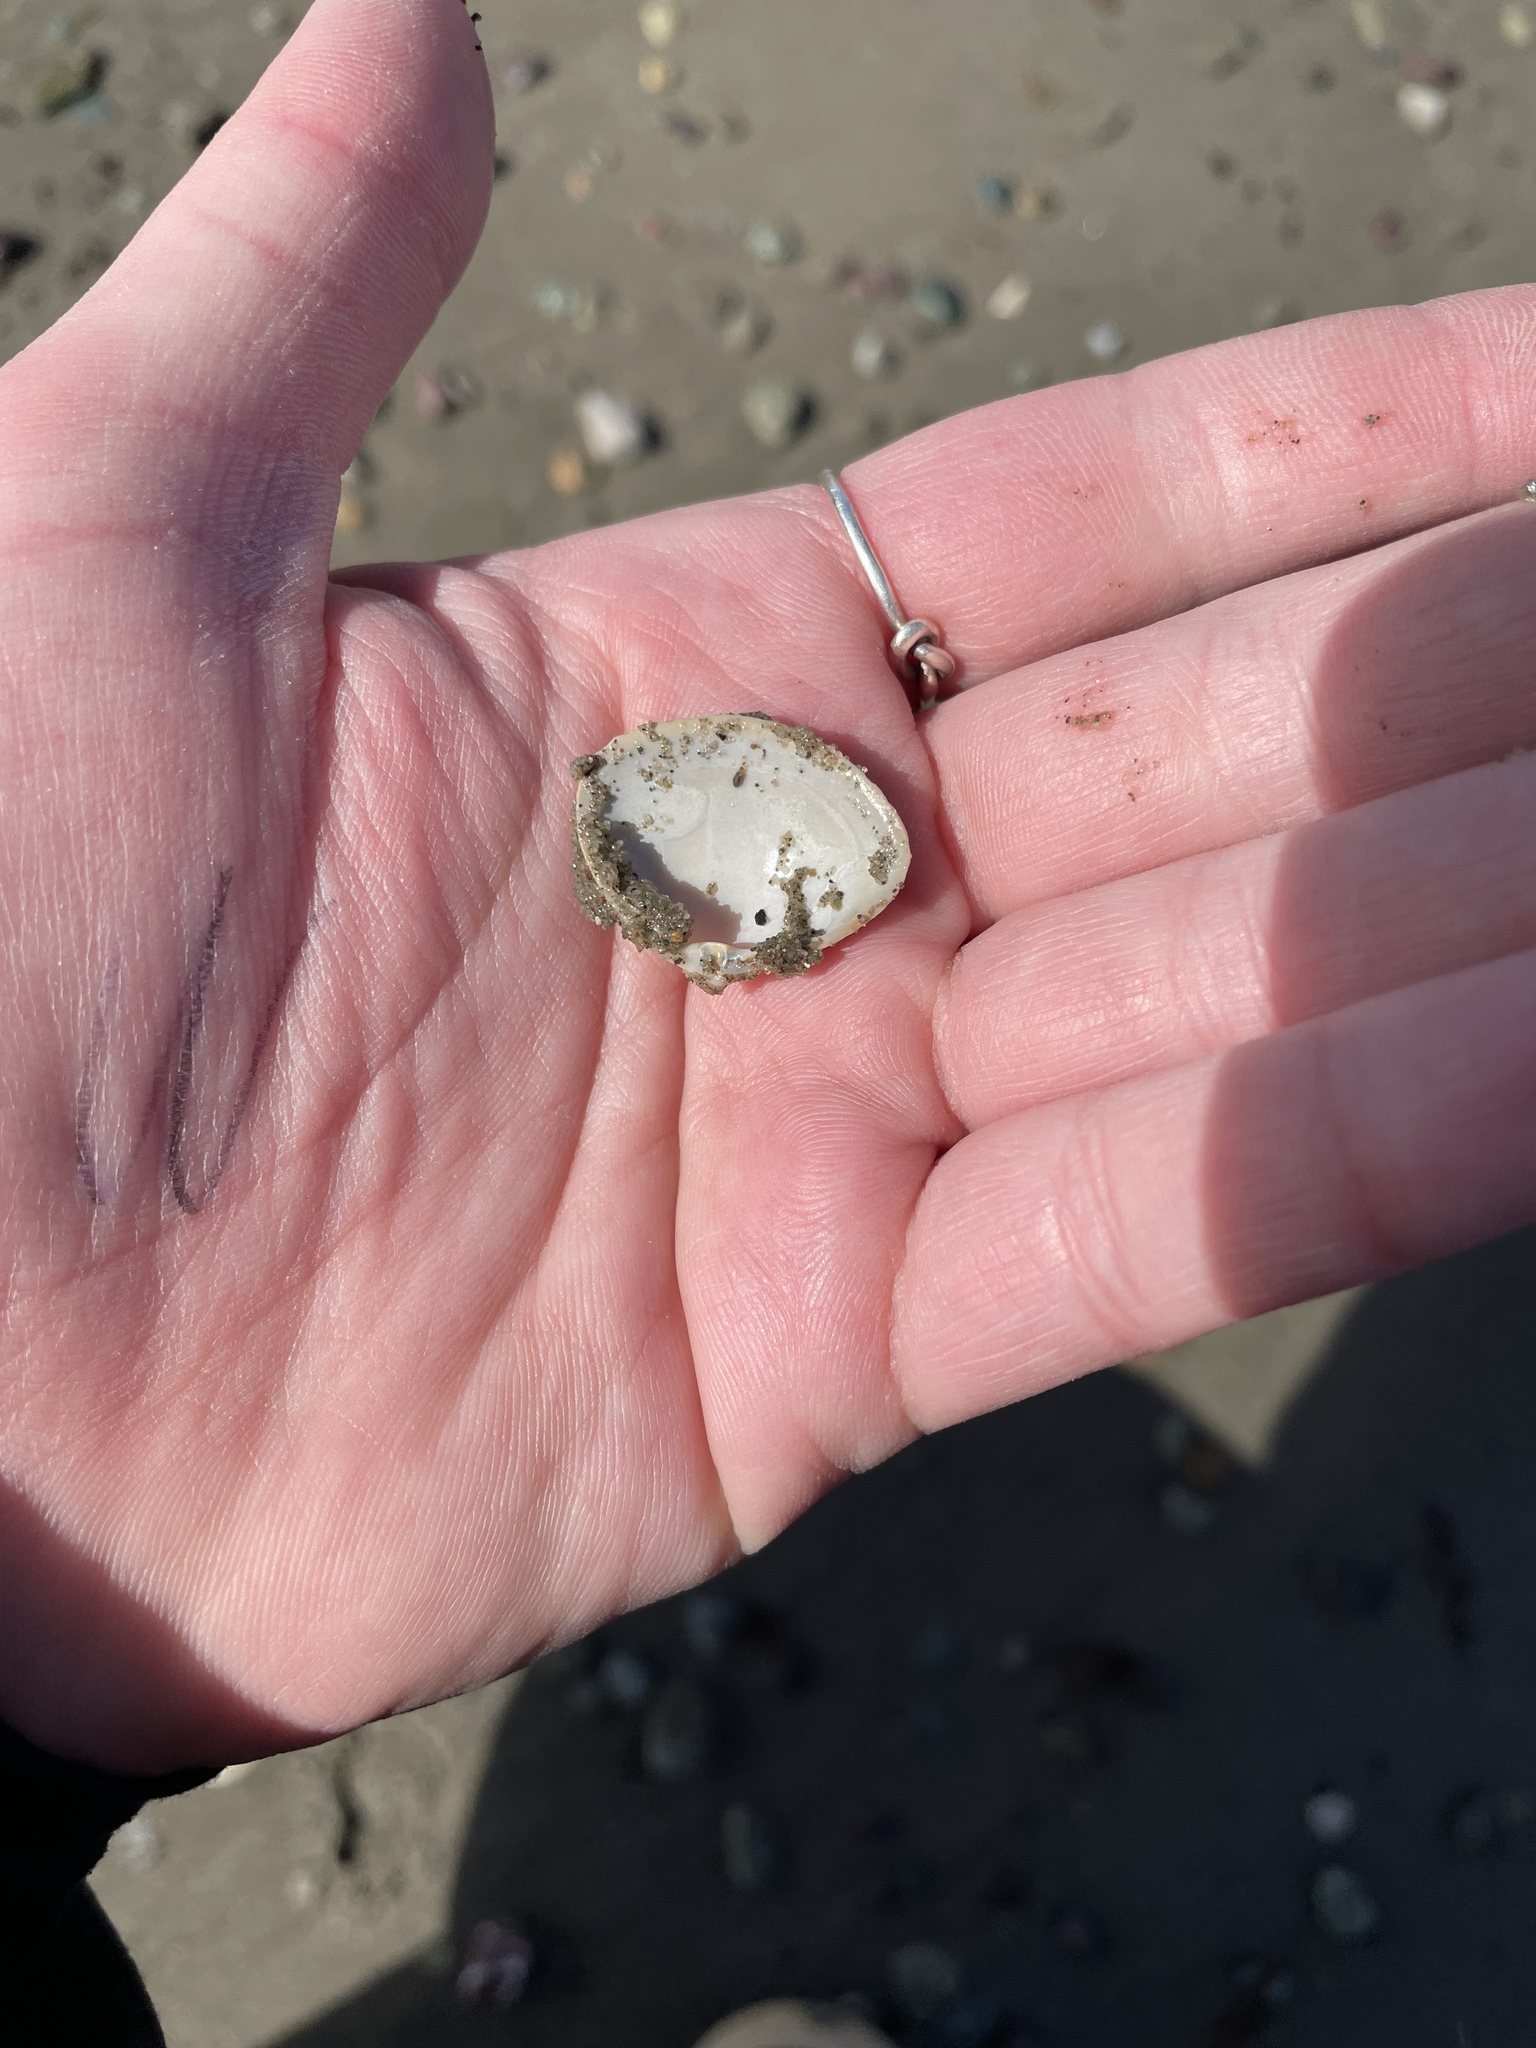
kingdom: Animalia
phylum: Mollusca
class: Bivalvia
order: Venerida
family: Mactridae
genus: Spisula
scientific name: Spisula solidissima
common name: Atlantic surf clam
